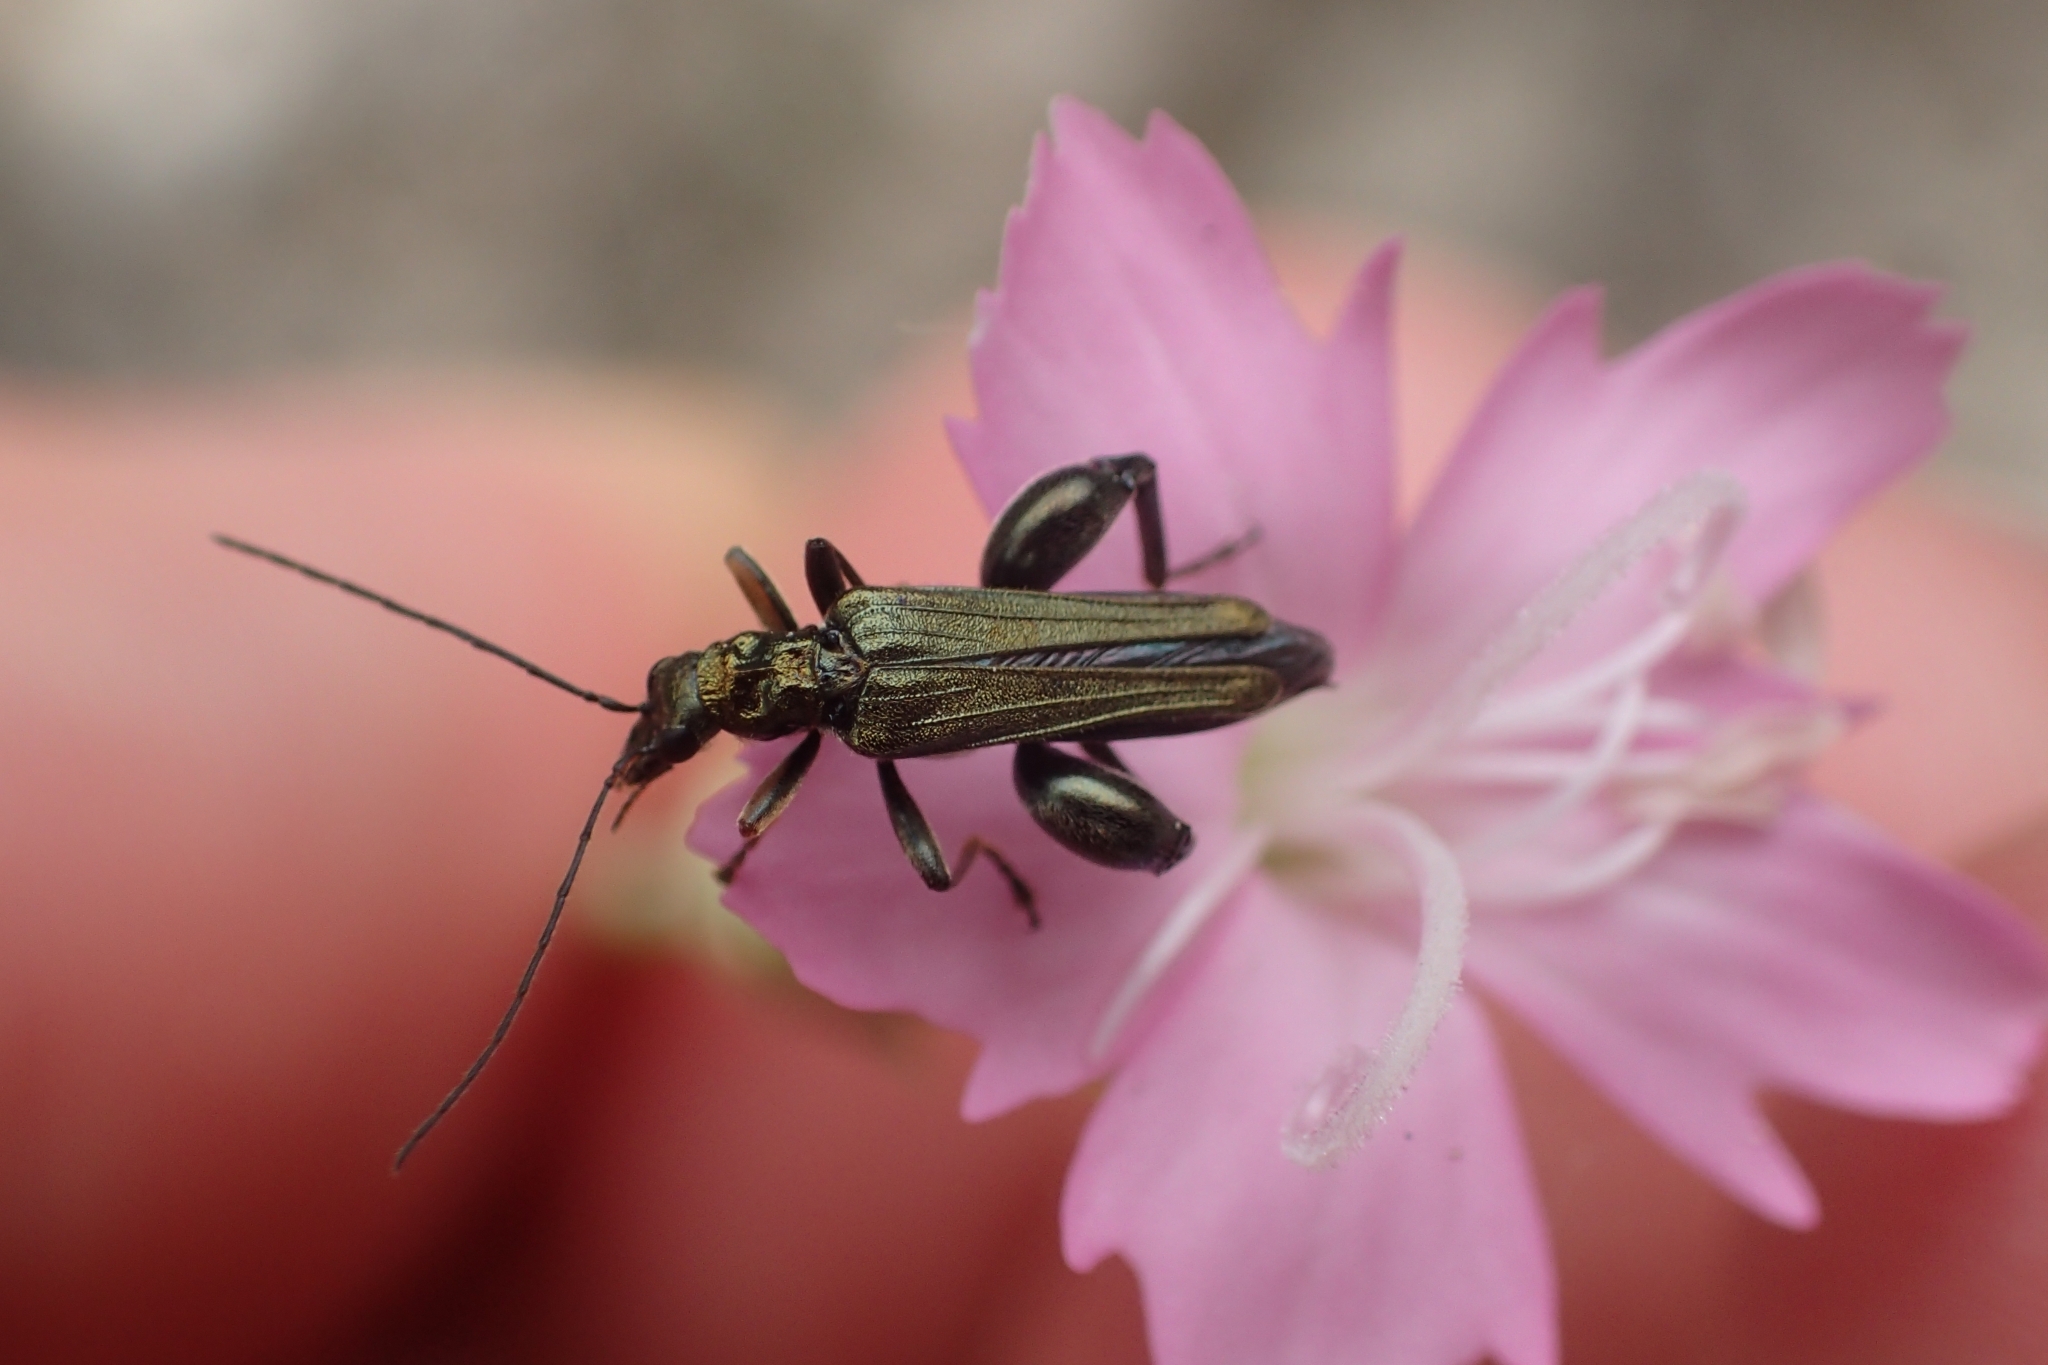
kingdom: Animalia
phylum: Arthropoda
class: Insecta
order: Coleoptera
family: Oedemeridae
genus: Oedemera
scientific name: Oedemera flavipes
